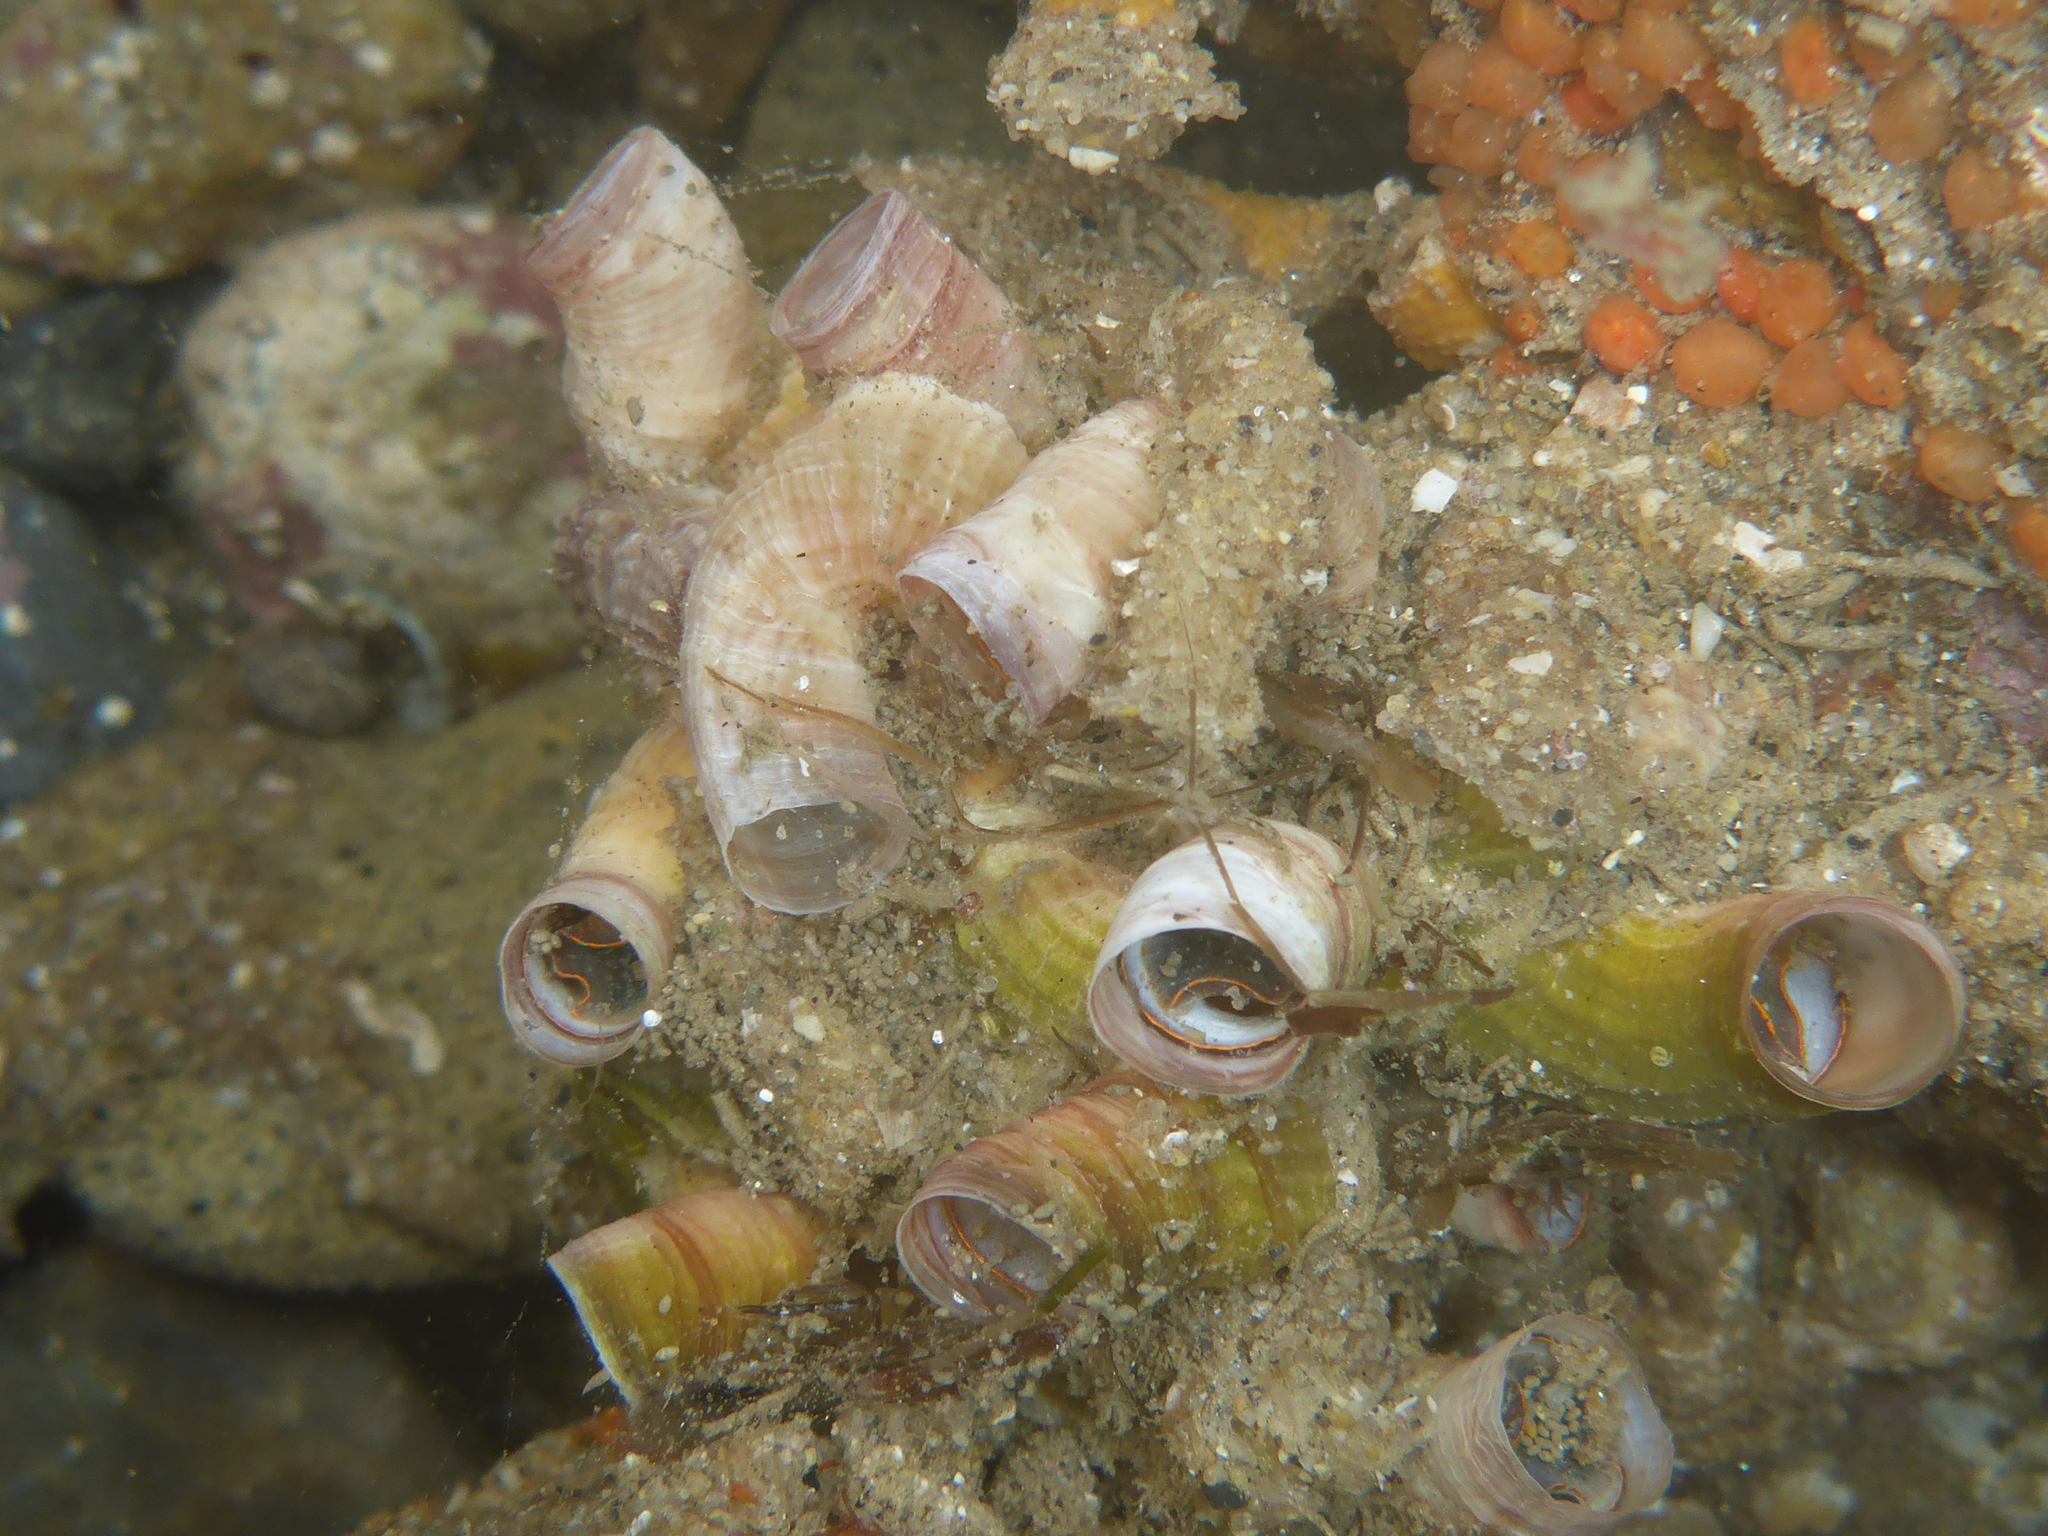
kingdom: Animalia
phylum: Mollusca
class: Gastropoda
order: Littorinimorpha
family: Vermetidae
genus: Thylacodes
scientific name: Thylacodes squamigerus
